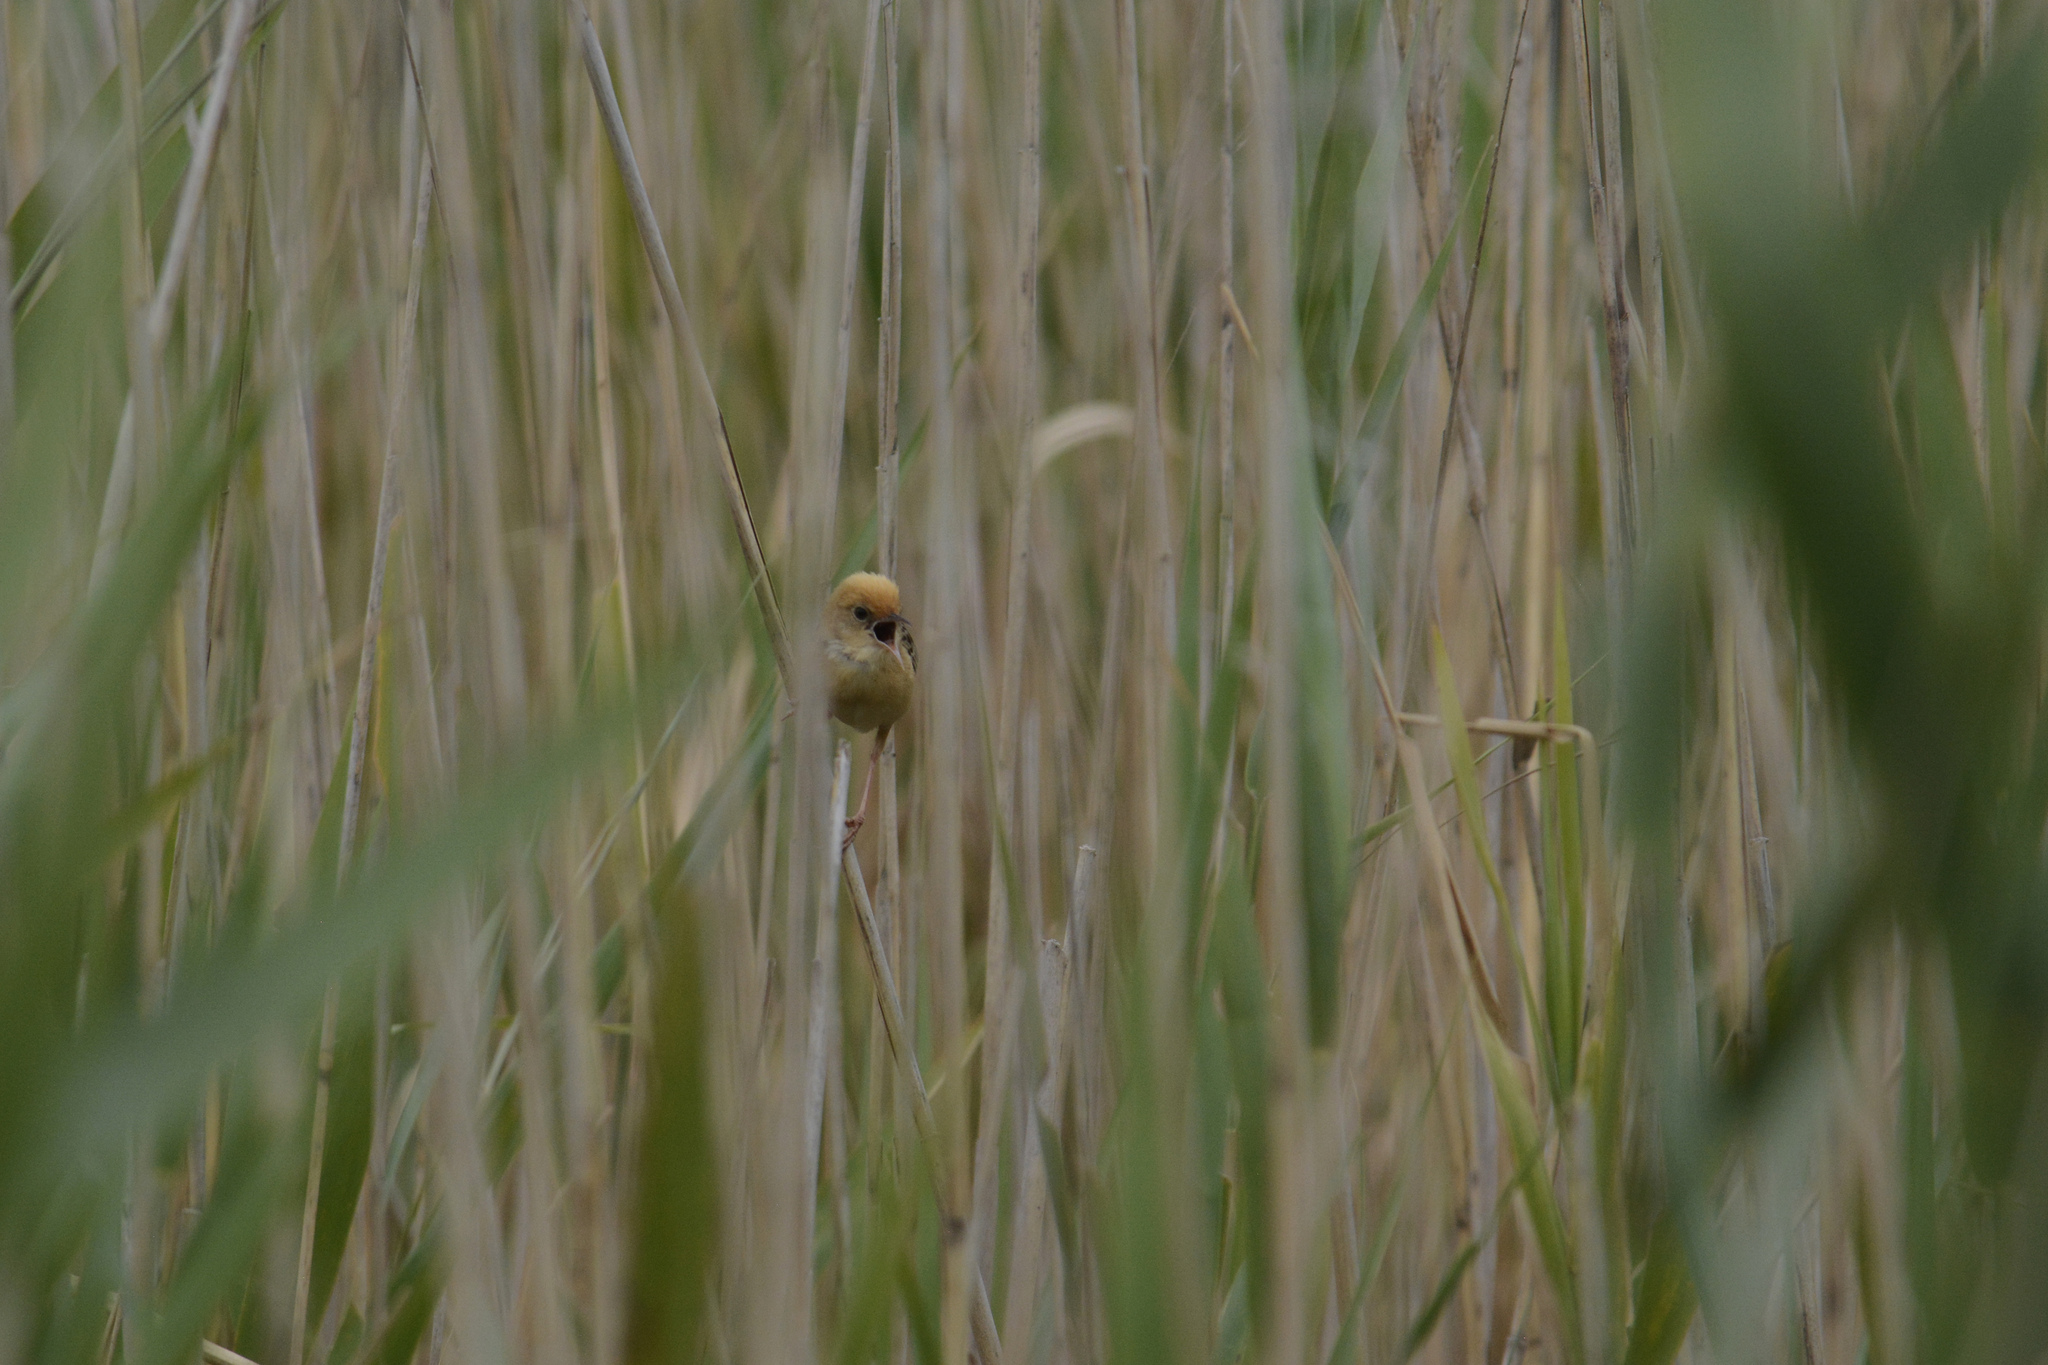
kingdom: Animalia
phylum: Chordata
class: Aves
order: Passeriformes
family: Cisticolidae
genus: Cisticola
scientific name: Cisticola exilis
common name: Golden-headed cisticola
